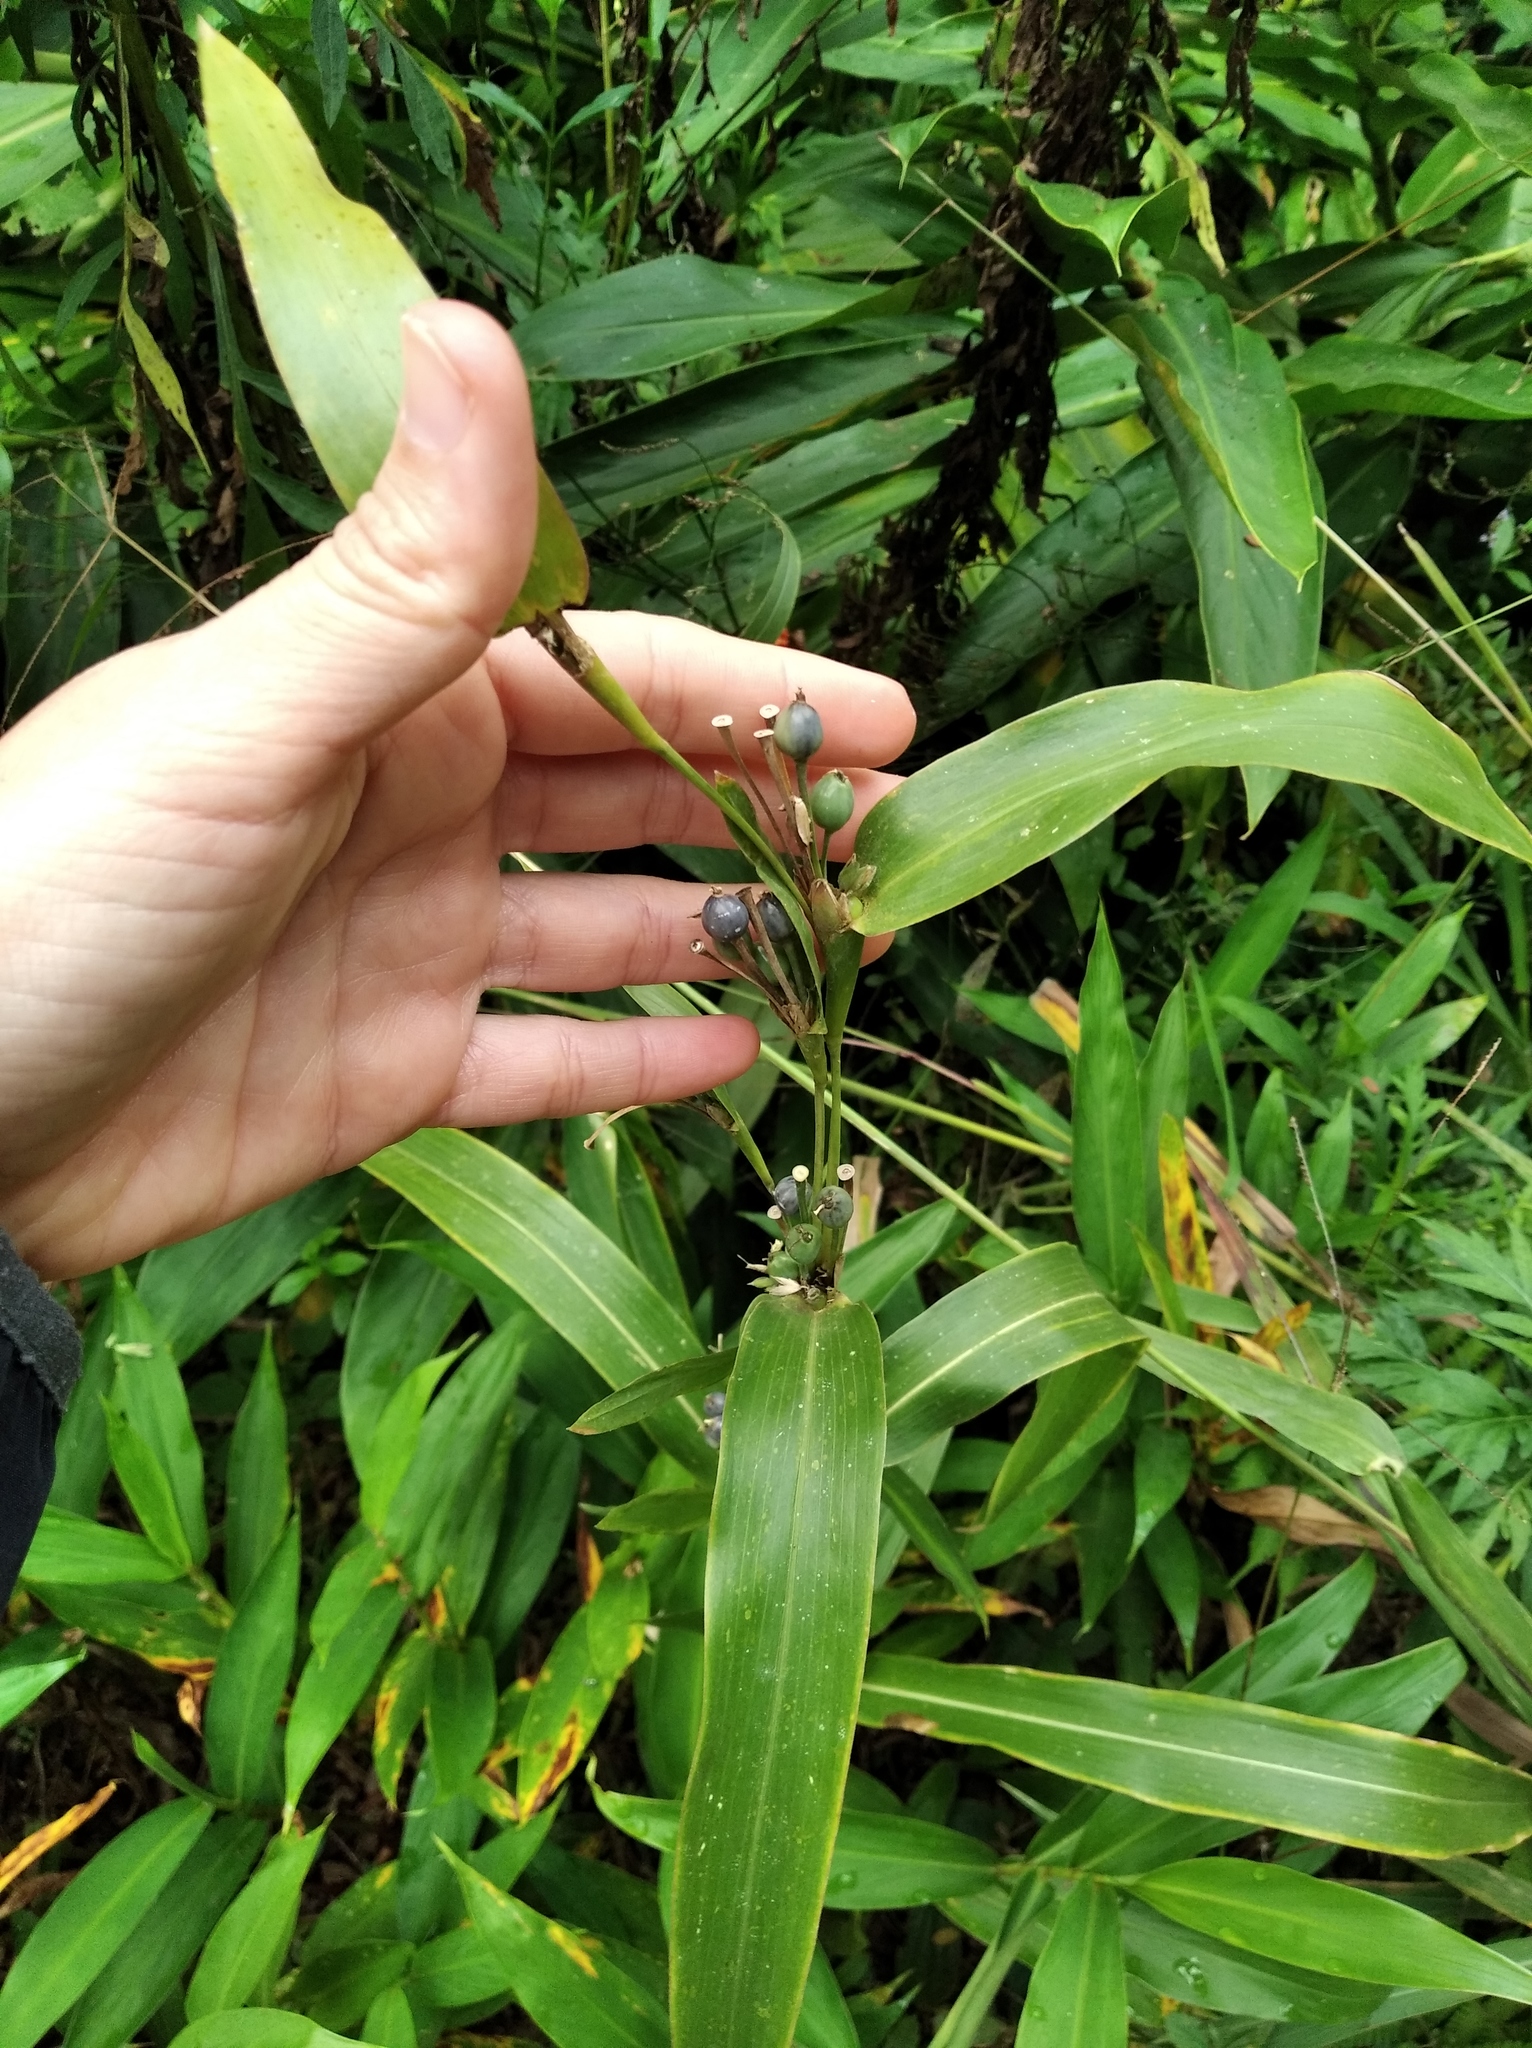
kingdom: Plantae
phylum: Tracheophyta
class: Liliopsida
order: Poales
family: Poaceae
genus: Coix
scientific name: Coix lacryma-jobi
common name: Job's tears
